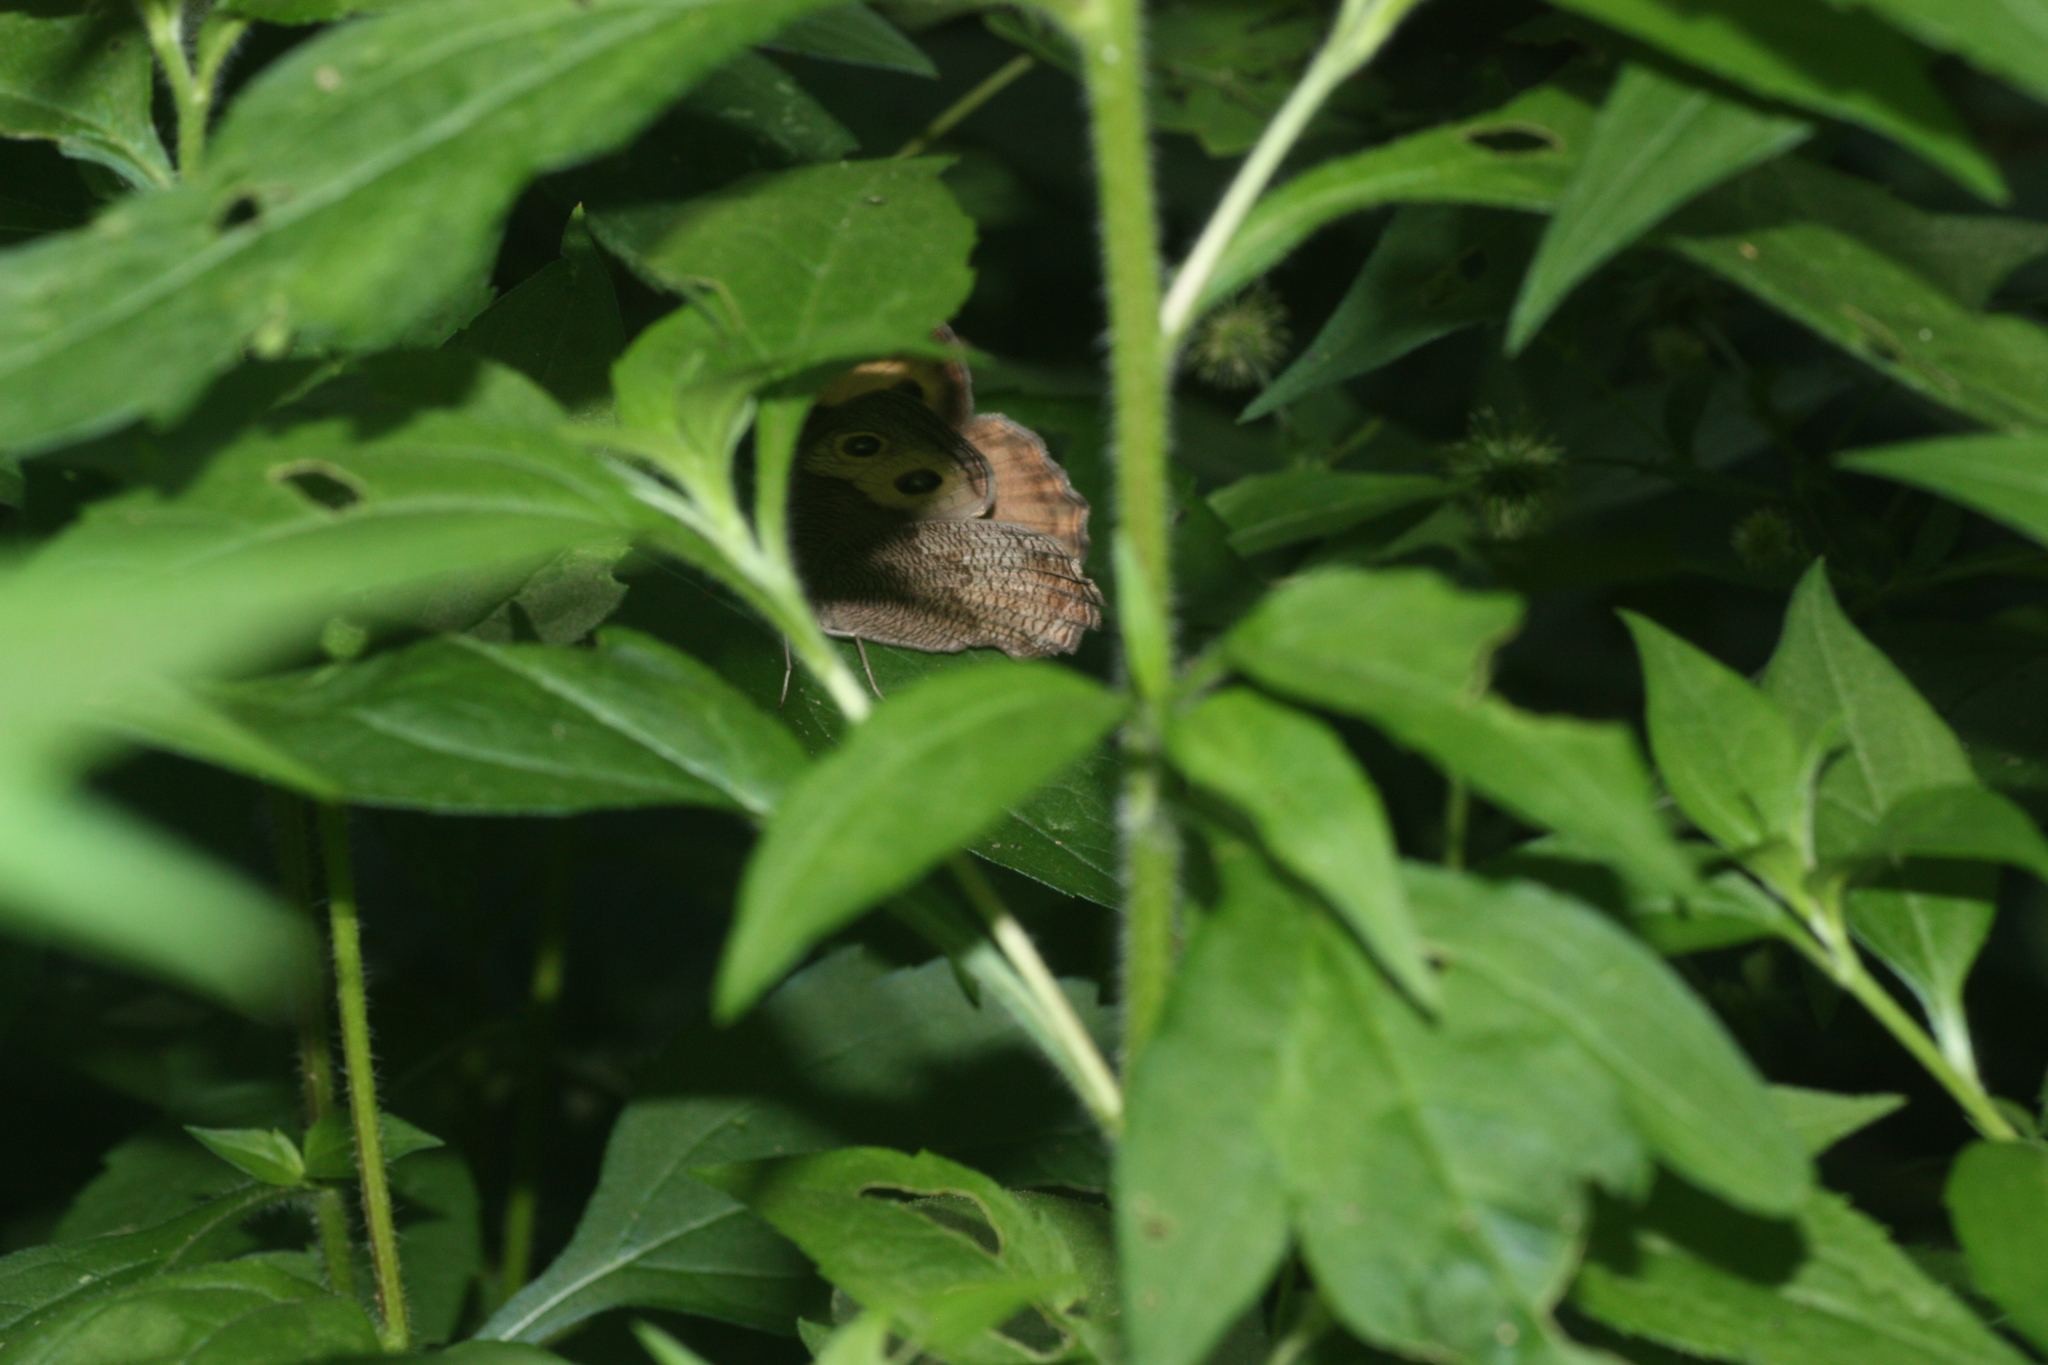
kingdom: Animalia
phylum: Arthropoda
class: Insecta
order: Lepidoptera
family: Nymphalidae
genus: Cercyonis
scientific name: Cercyonis pegala
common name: Common wood-nymph
